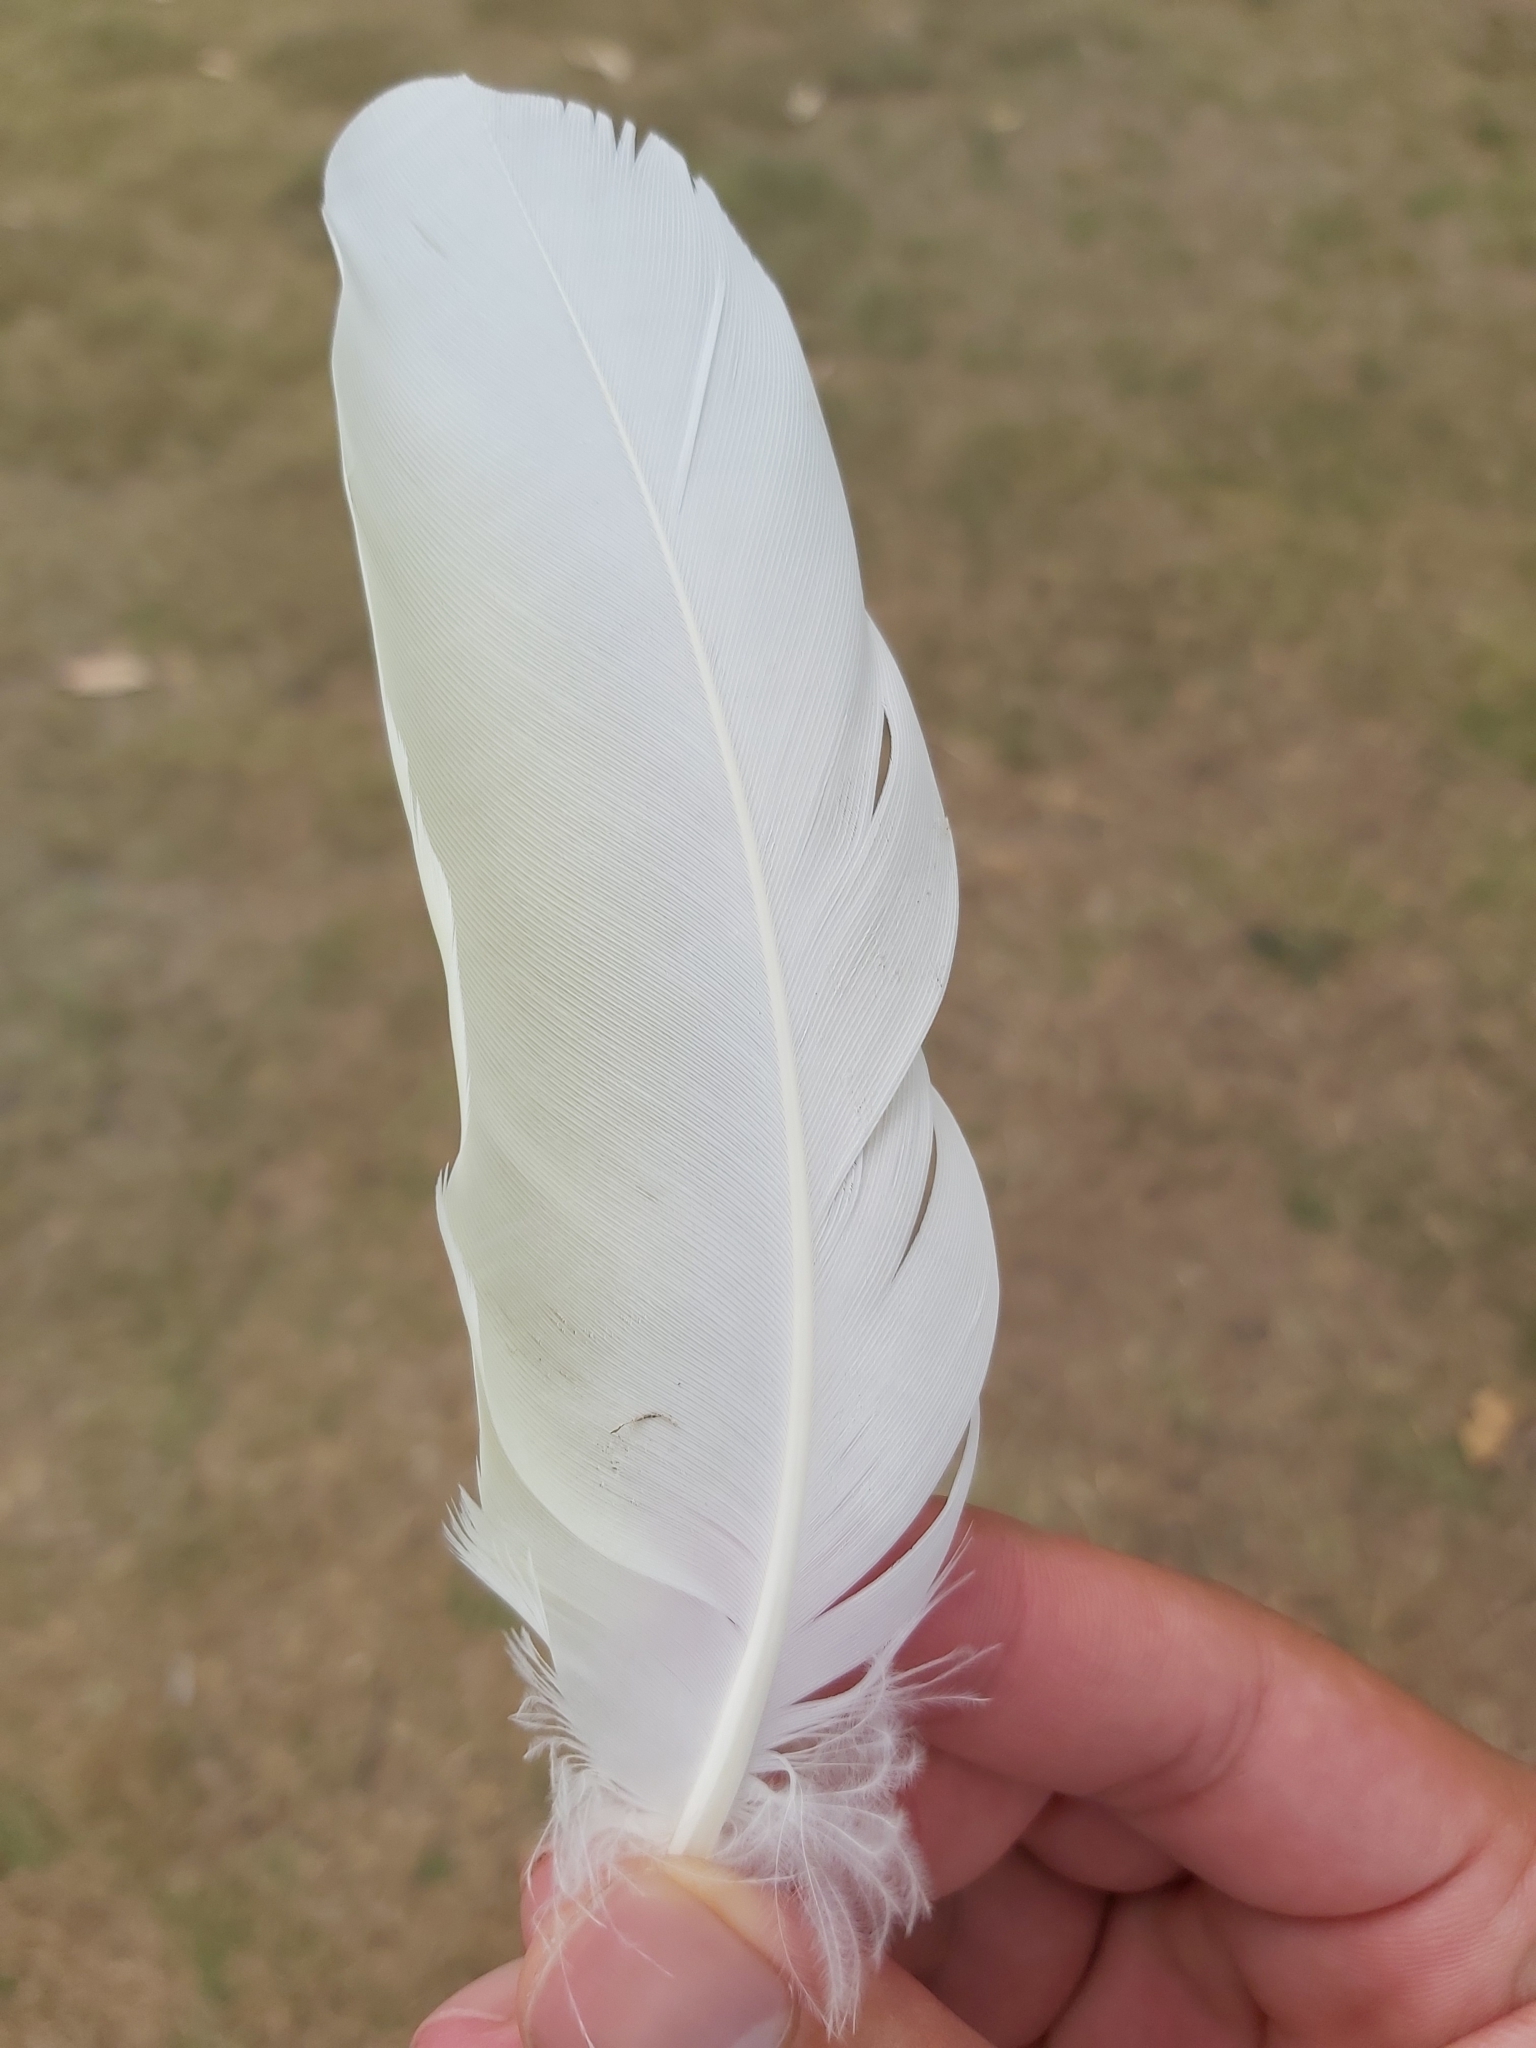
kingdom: Animalia
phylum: Chordata
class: Aves
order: Psittaciformes
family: Psittacidae
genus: Cacatua
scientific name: Cacatua galerita
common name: Sulphur-crested cockatoo
